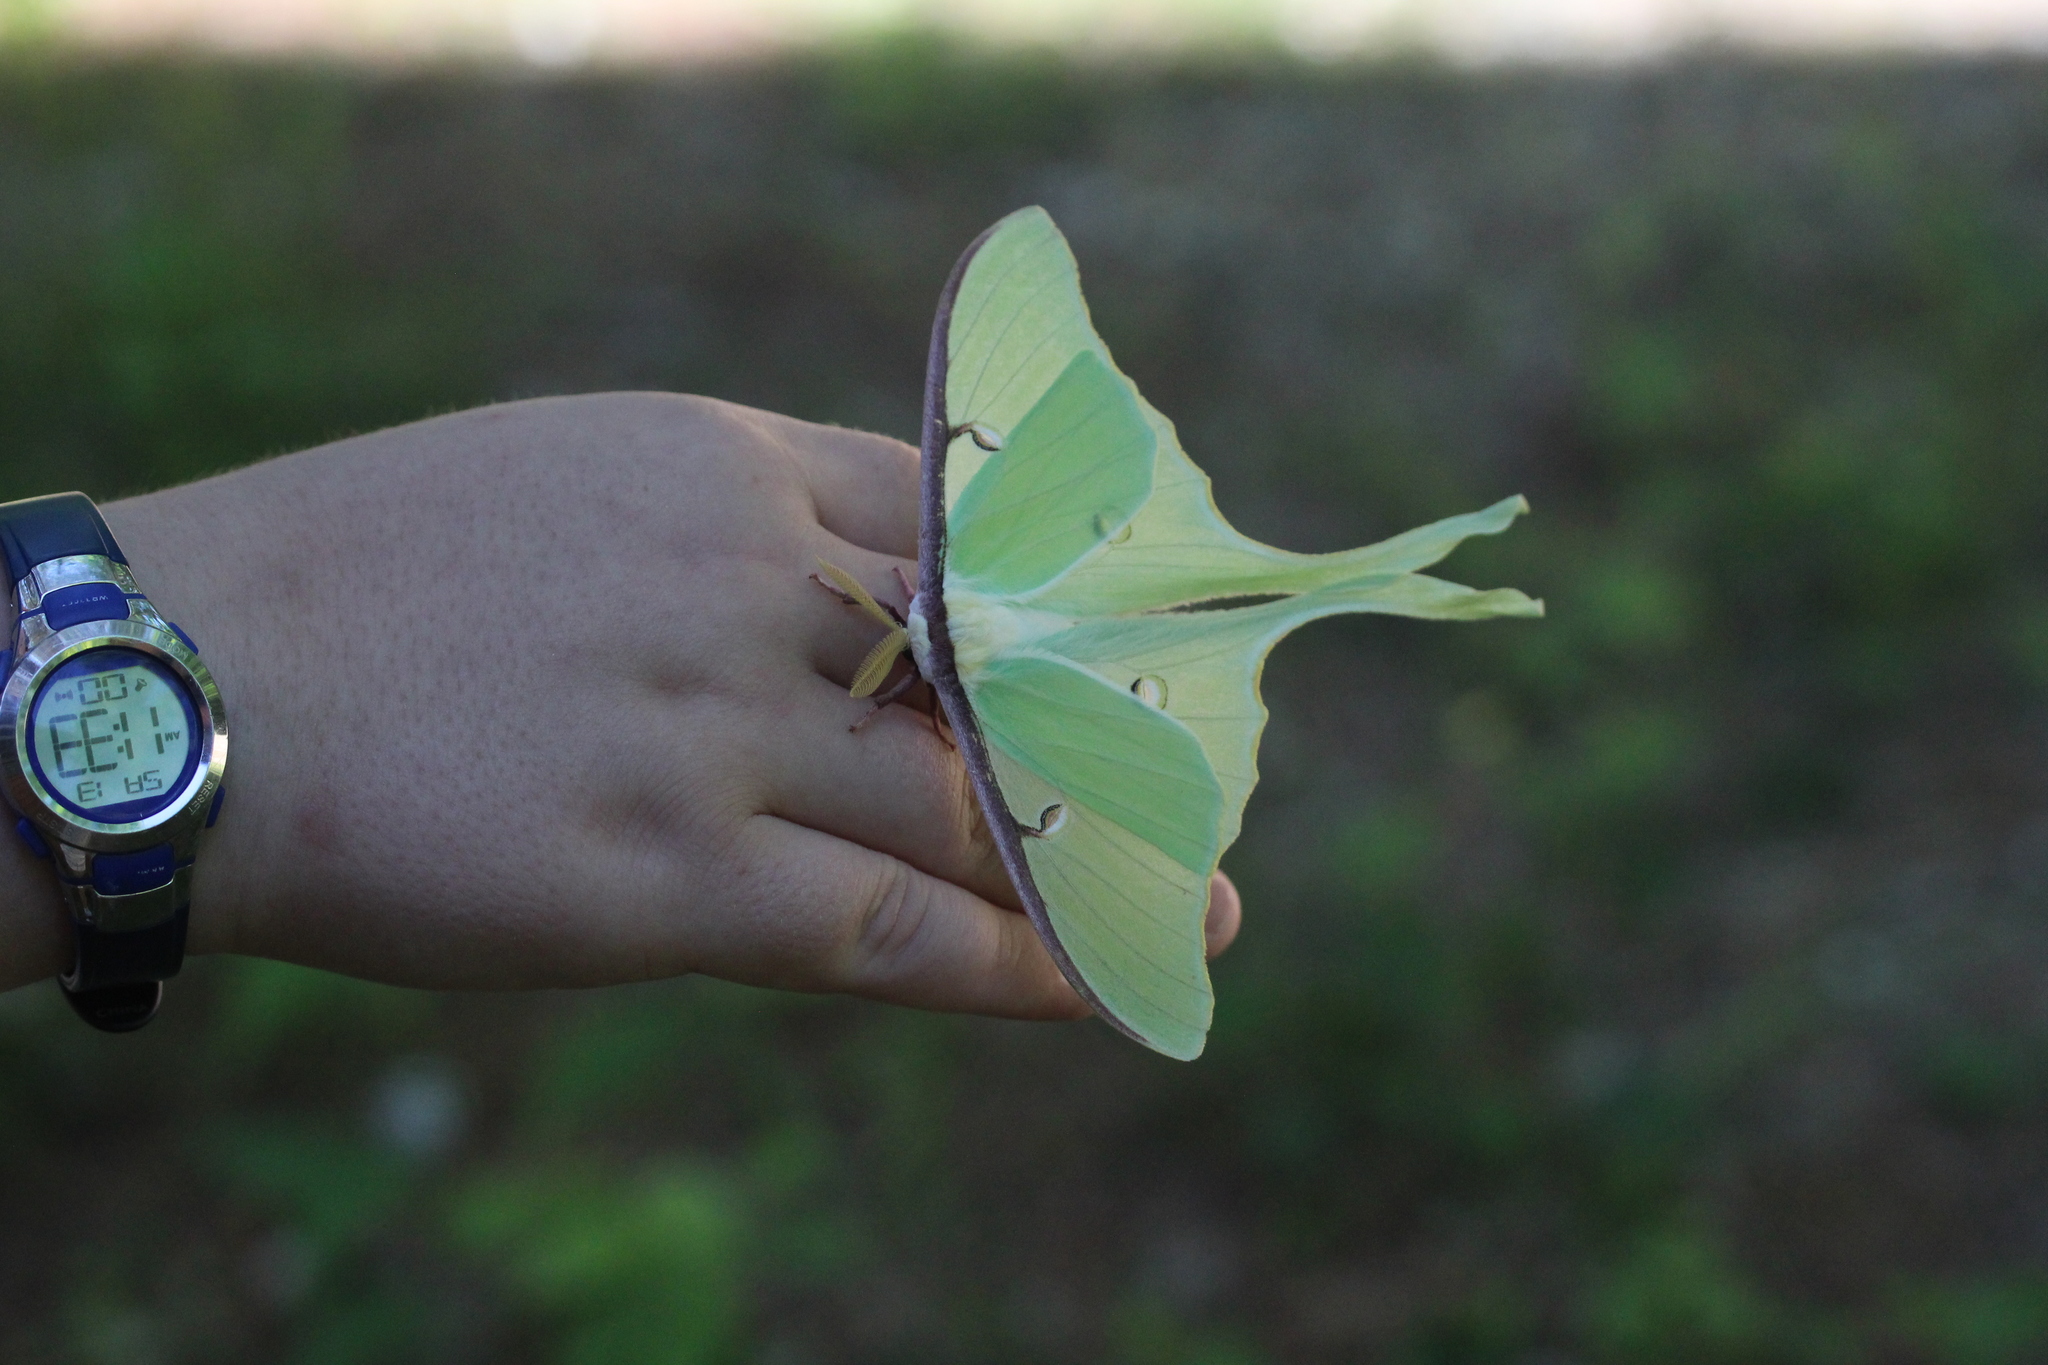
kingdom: Animalia
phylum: Arthropoda
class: Insecta
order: Lepidoptera
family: Saturniidae
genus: Actias
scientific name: Actias luna
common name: Luna moth
